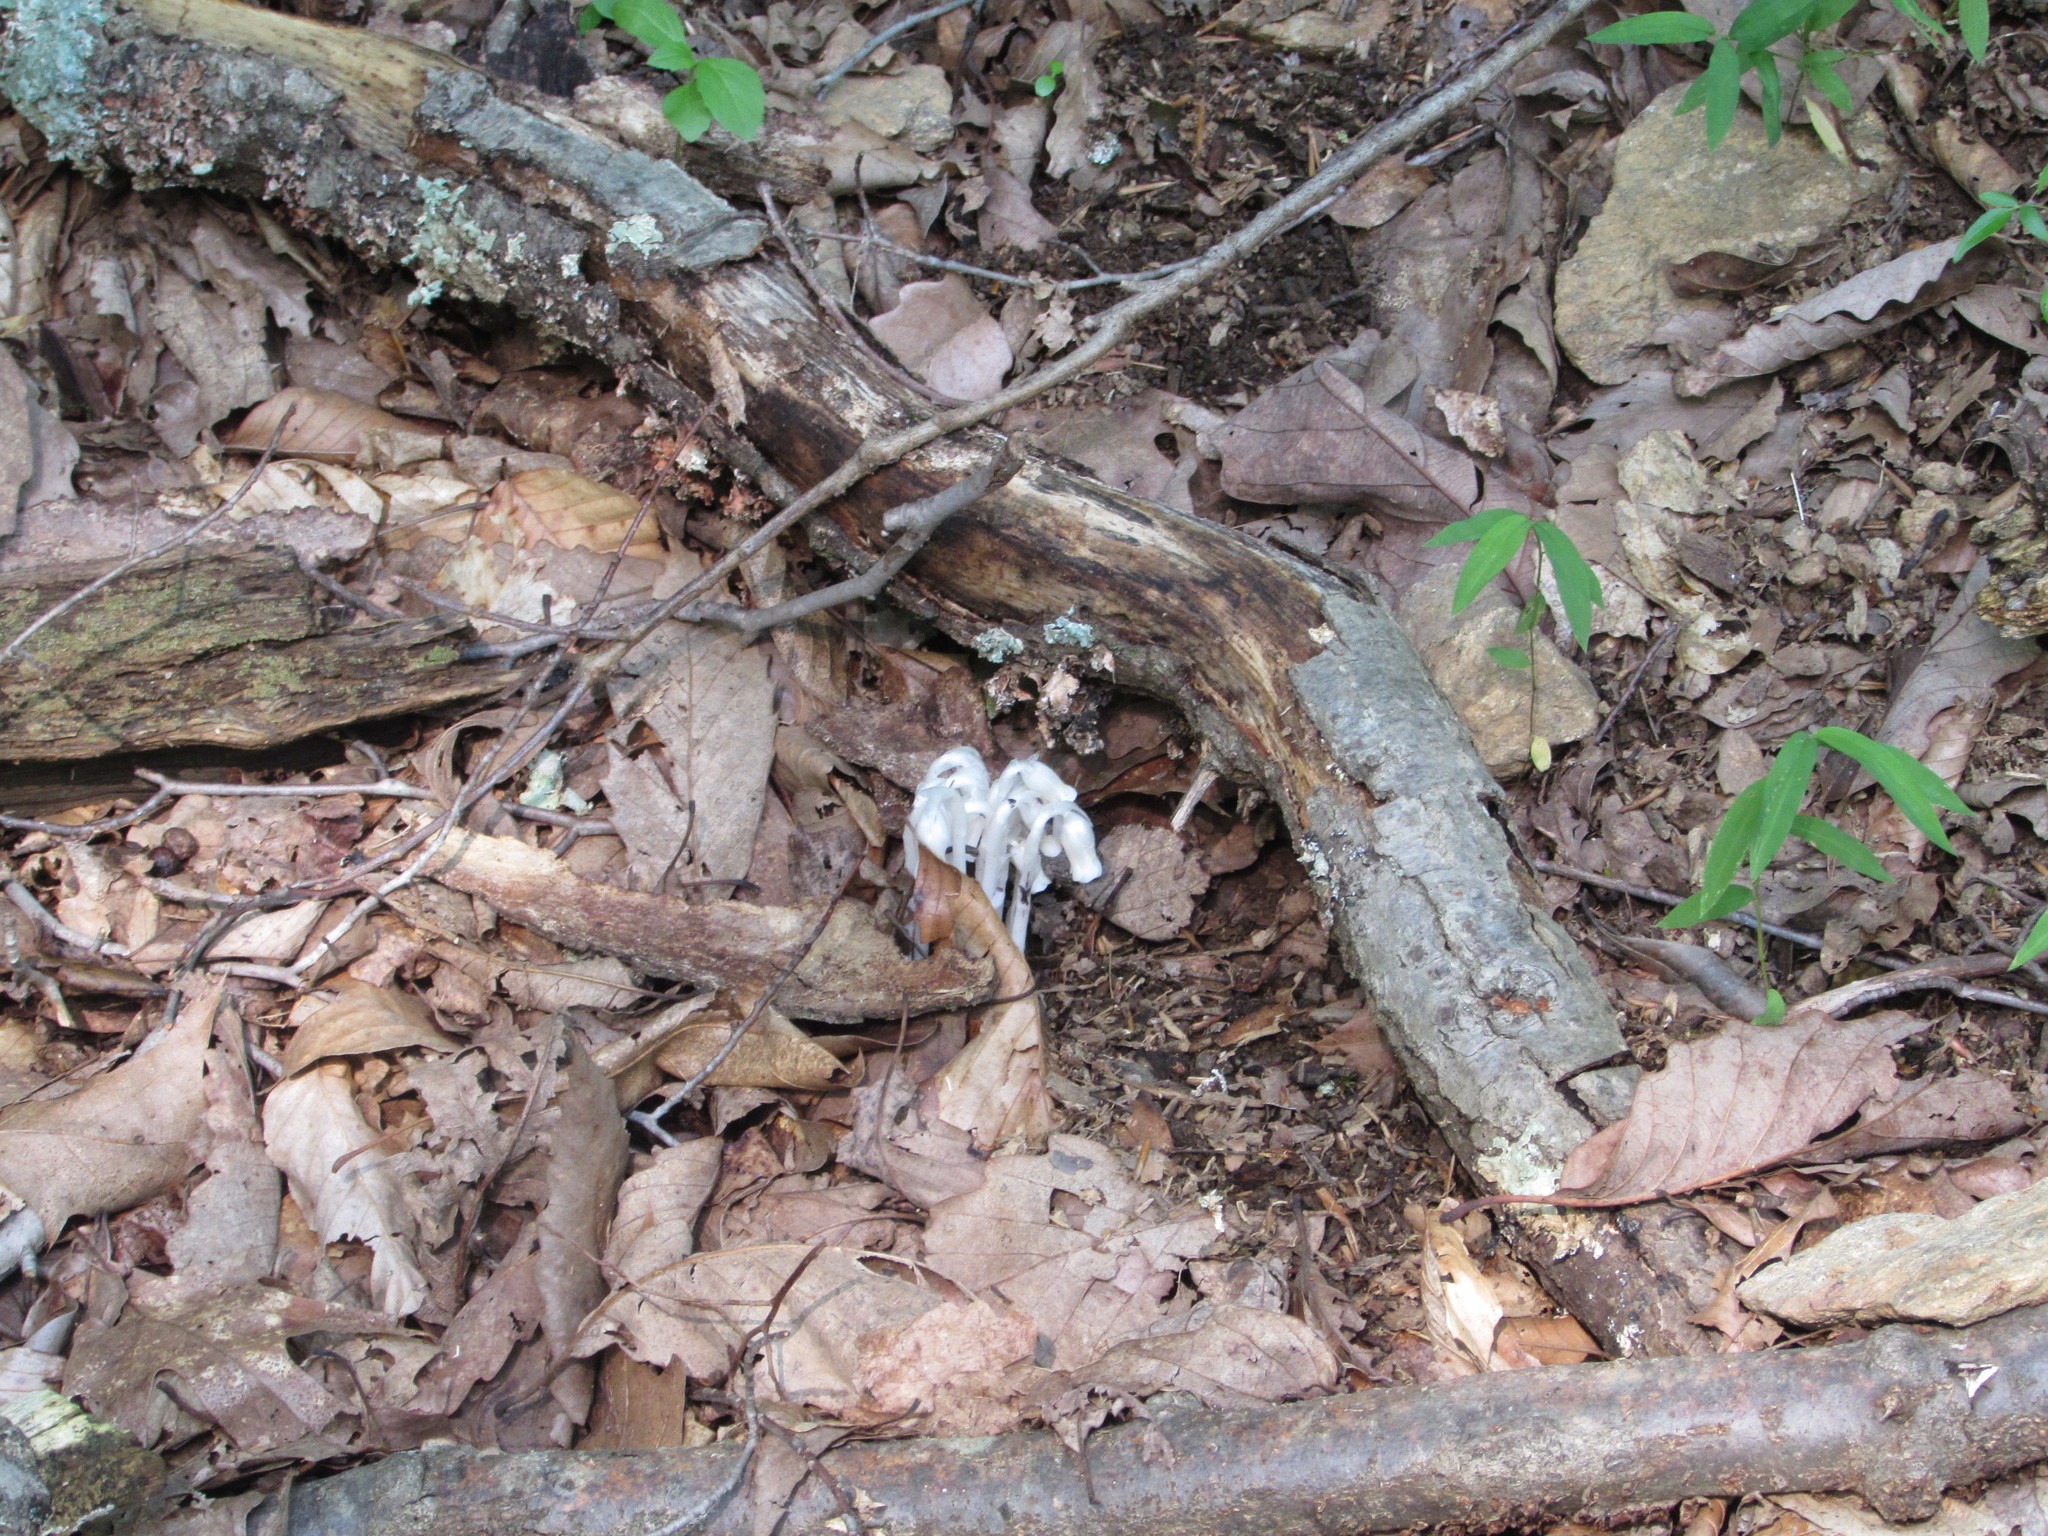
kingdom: Plantae
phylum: Tracheophyta
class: Magnoliopsida
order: Ericales
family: Ericaceae
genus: Monotropa
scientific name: Monotropa uniflora
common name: Convulsion root
